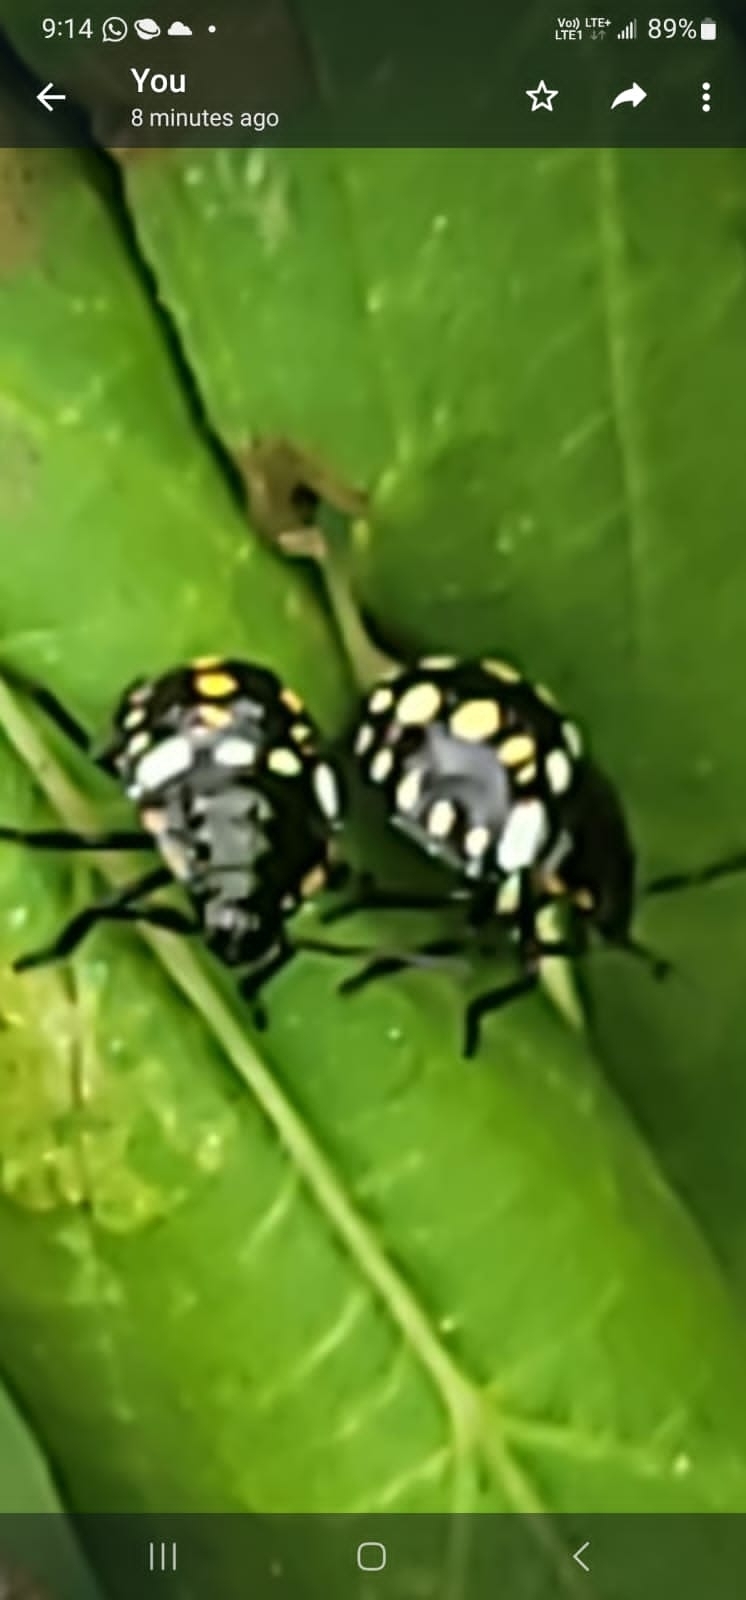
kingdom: Animalia
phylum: Arthropoda
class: Insecta
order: Hemiptera
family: Pentatomidae
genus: Nezara
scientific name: Nezara viridula
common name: Southern green stink bug
